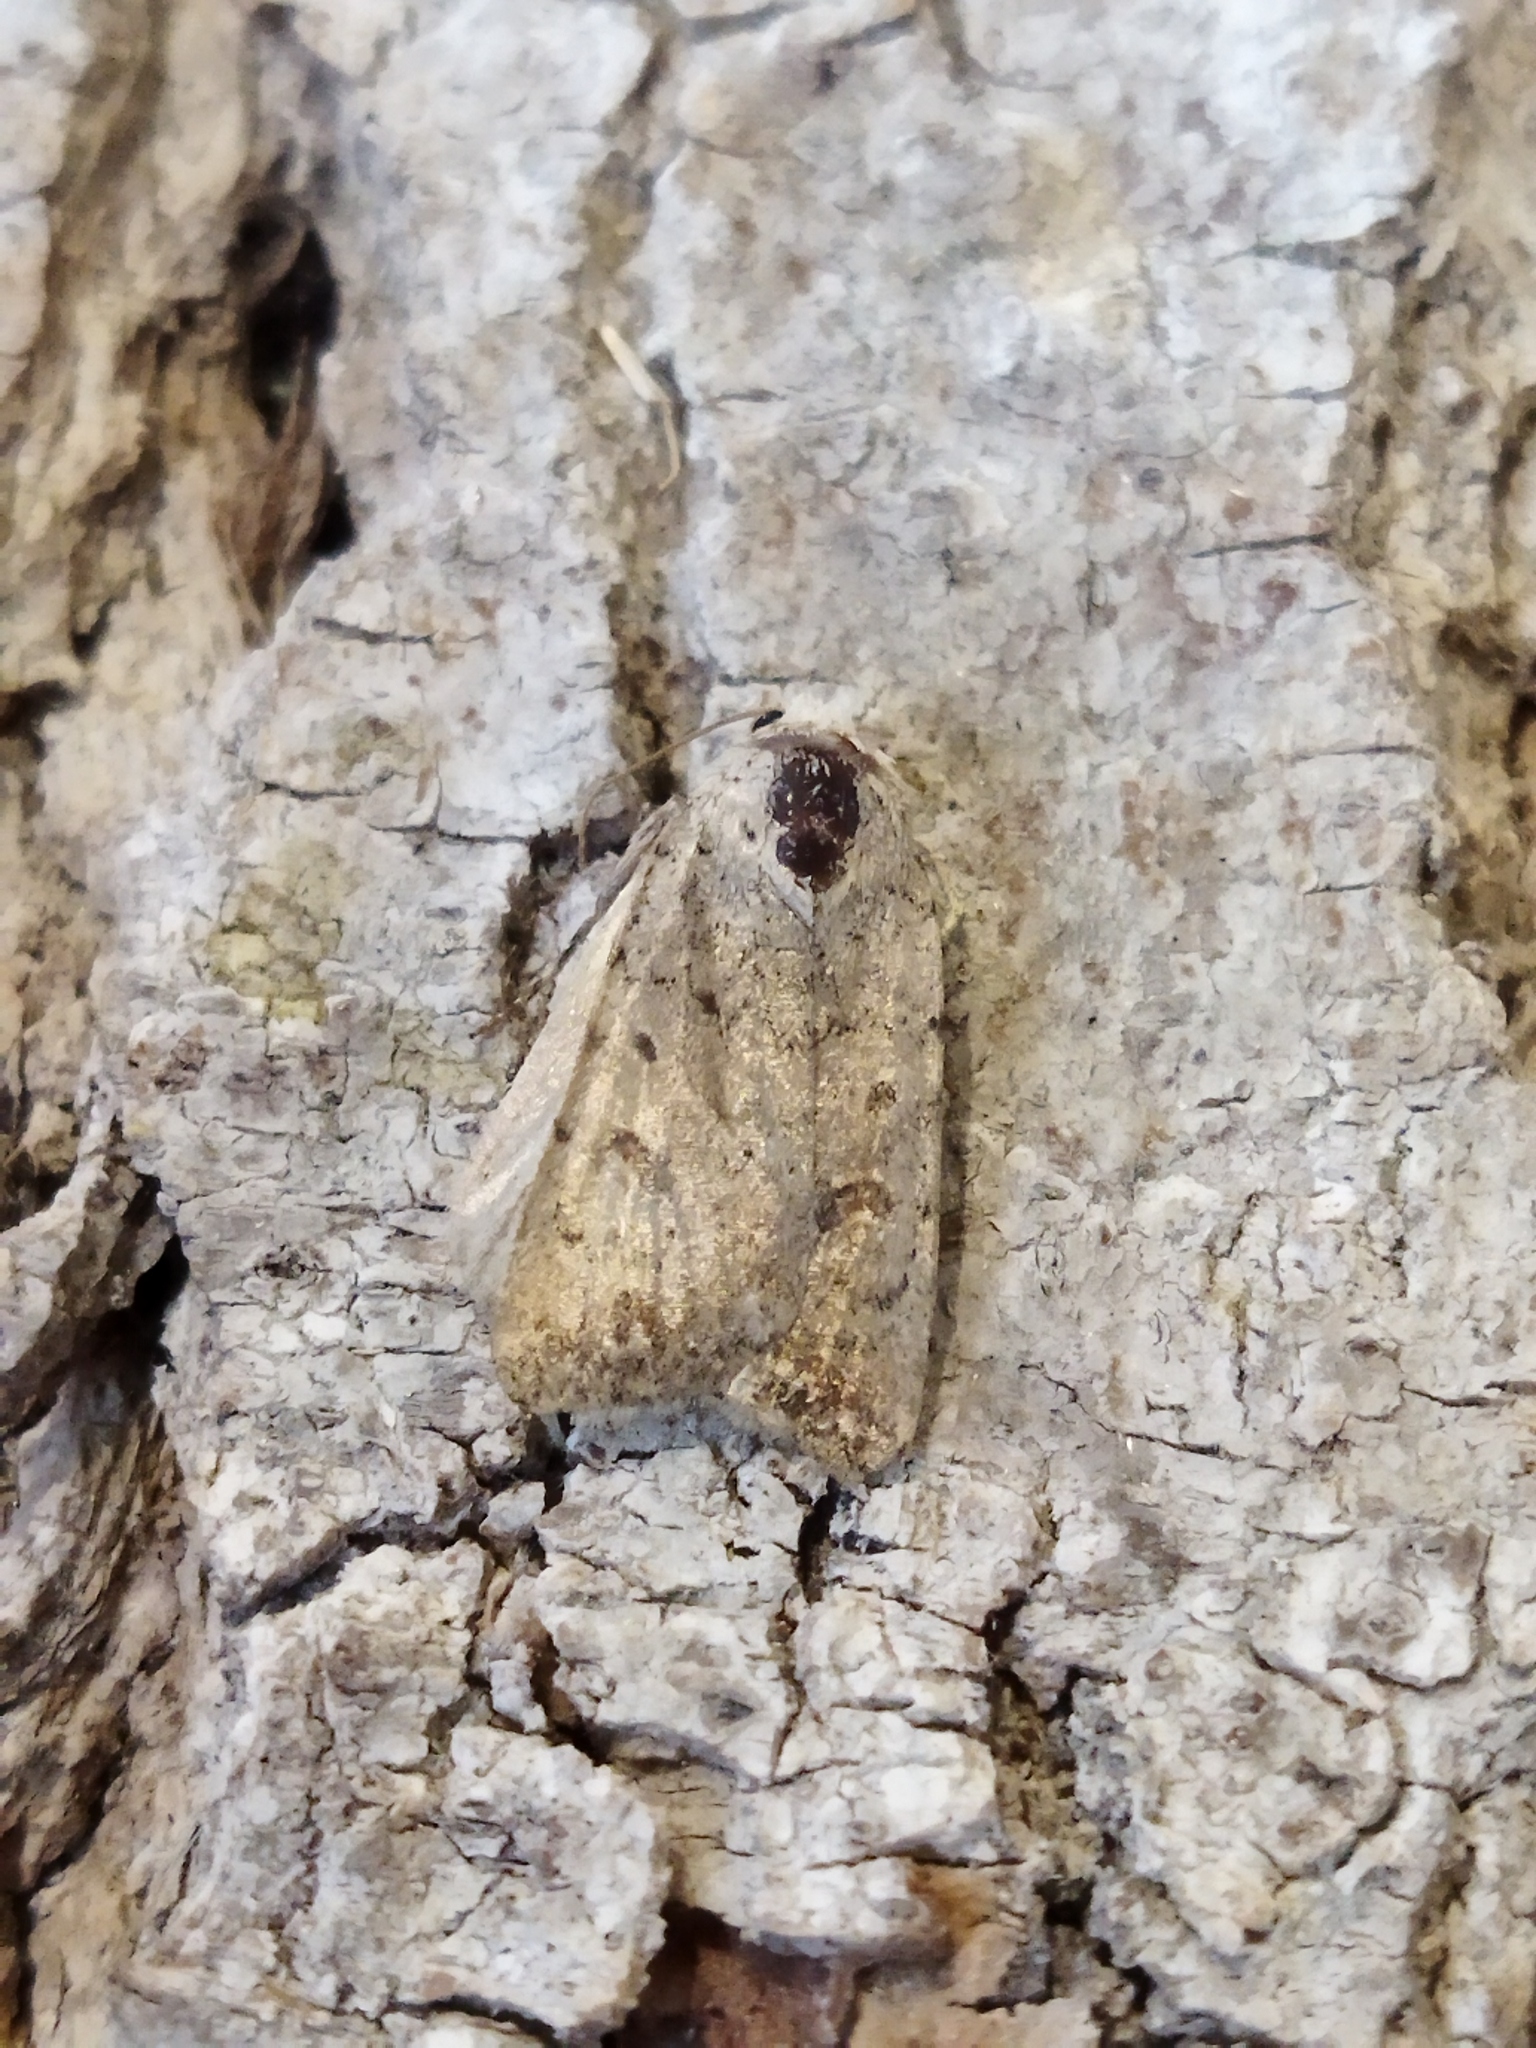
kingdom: Animalia
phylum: Arthropoda
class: Insecta
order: Lepidoptera
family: Noctuidae
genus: Caradrina
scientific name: Caradrina clavipalpis
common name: Pale mottled willow
